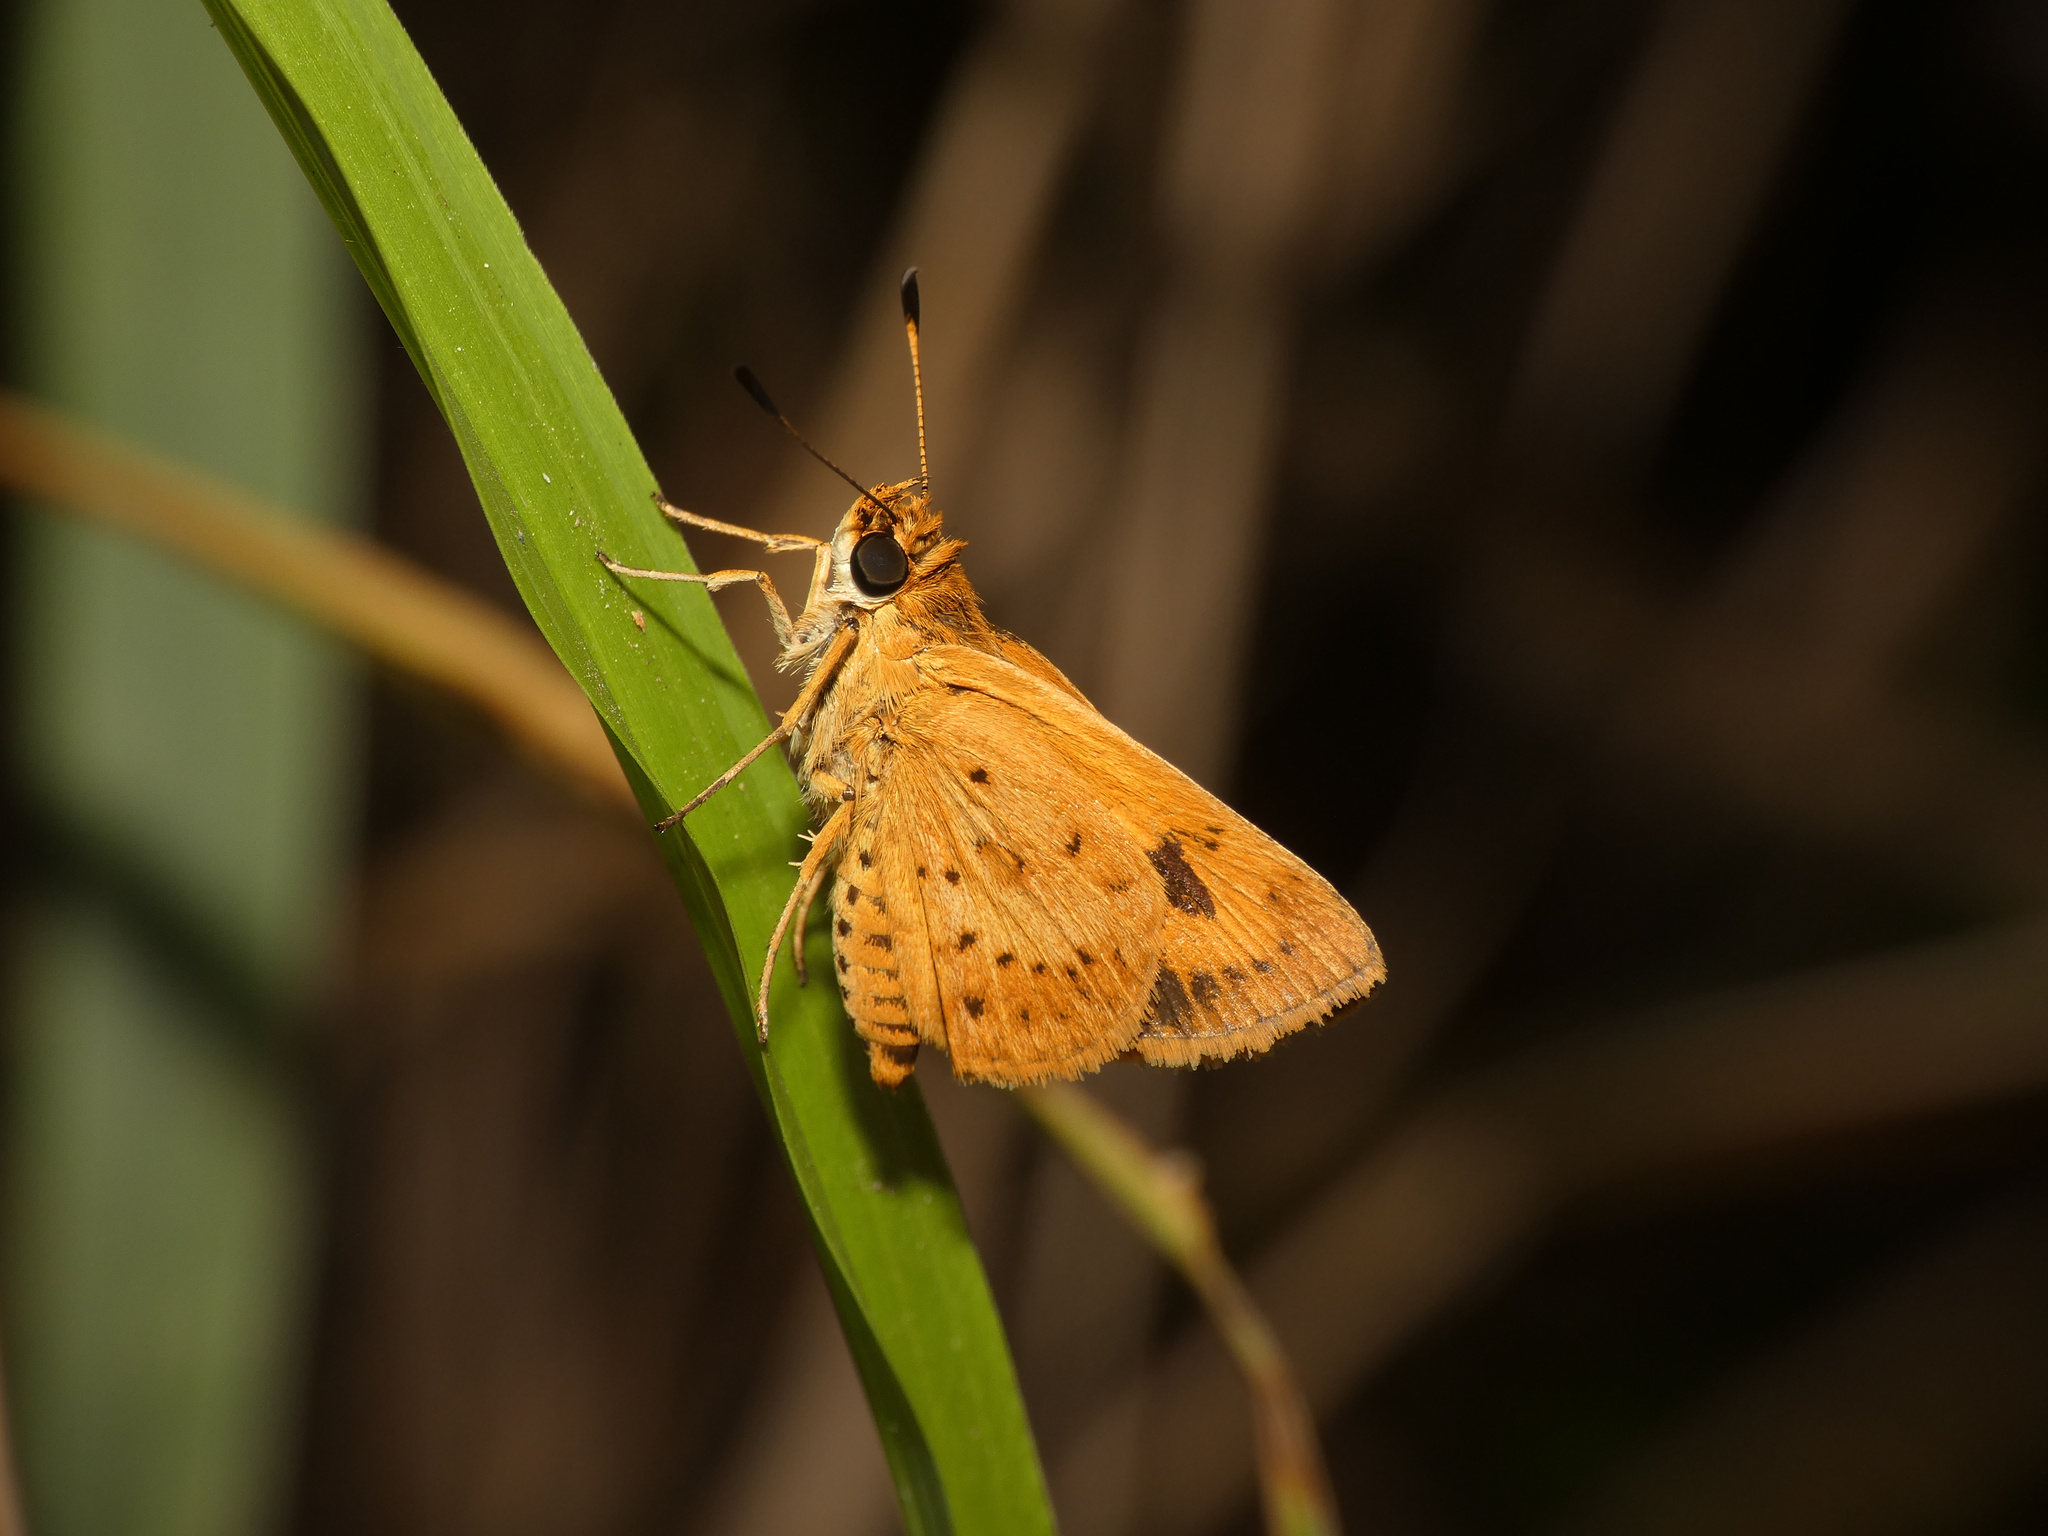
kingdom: Animalia
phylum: Arthropoda
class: Insecta
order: Lepidoptera
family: Hesperiidae
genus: Acada
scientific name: Acada biseriatus
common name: Axehead orange
